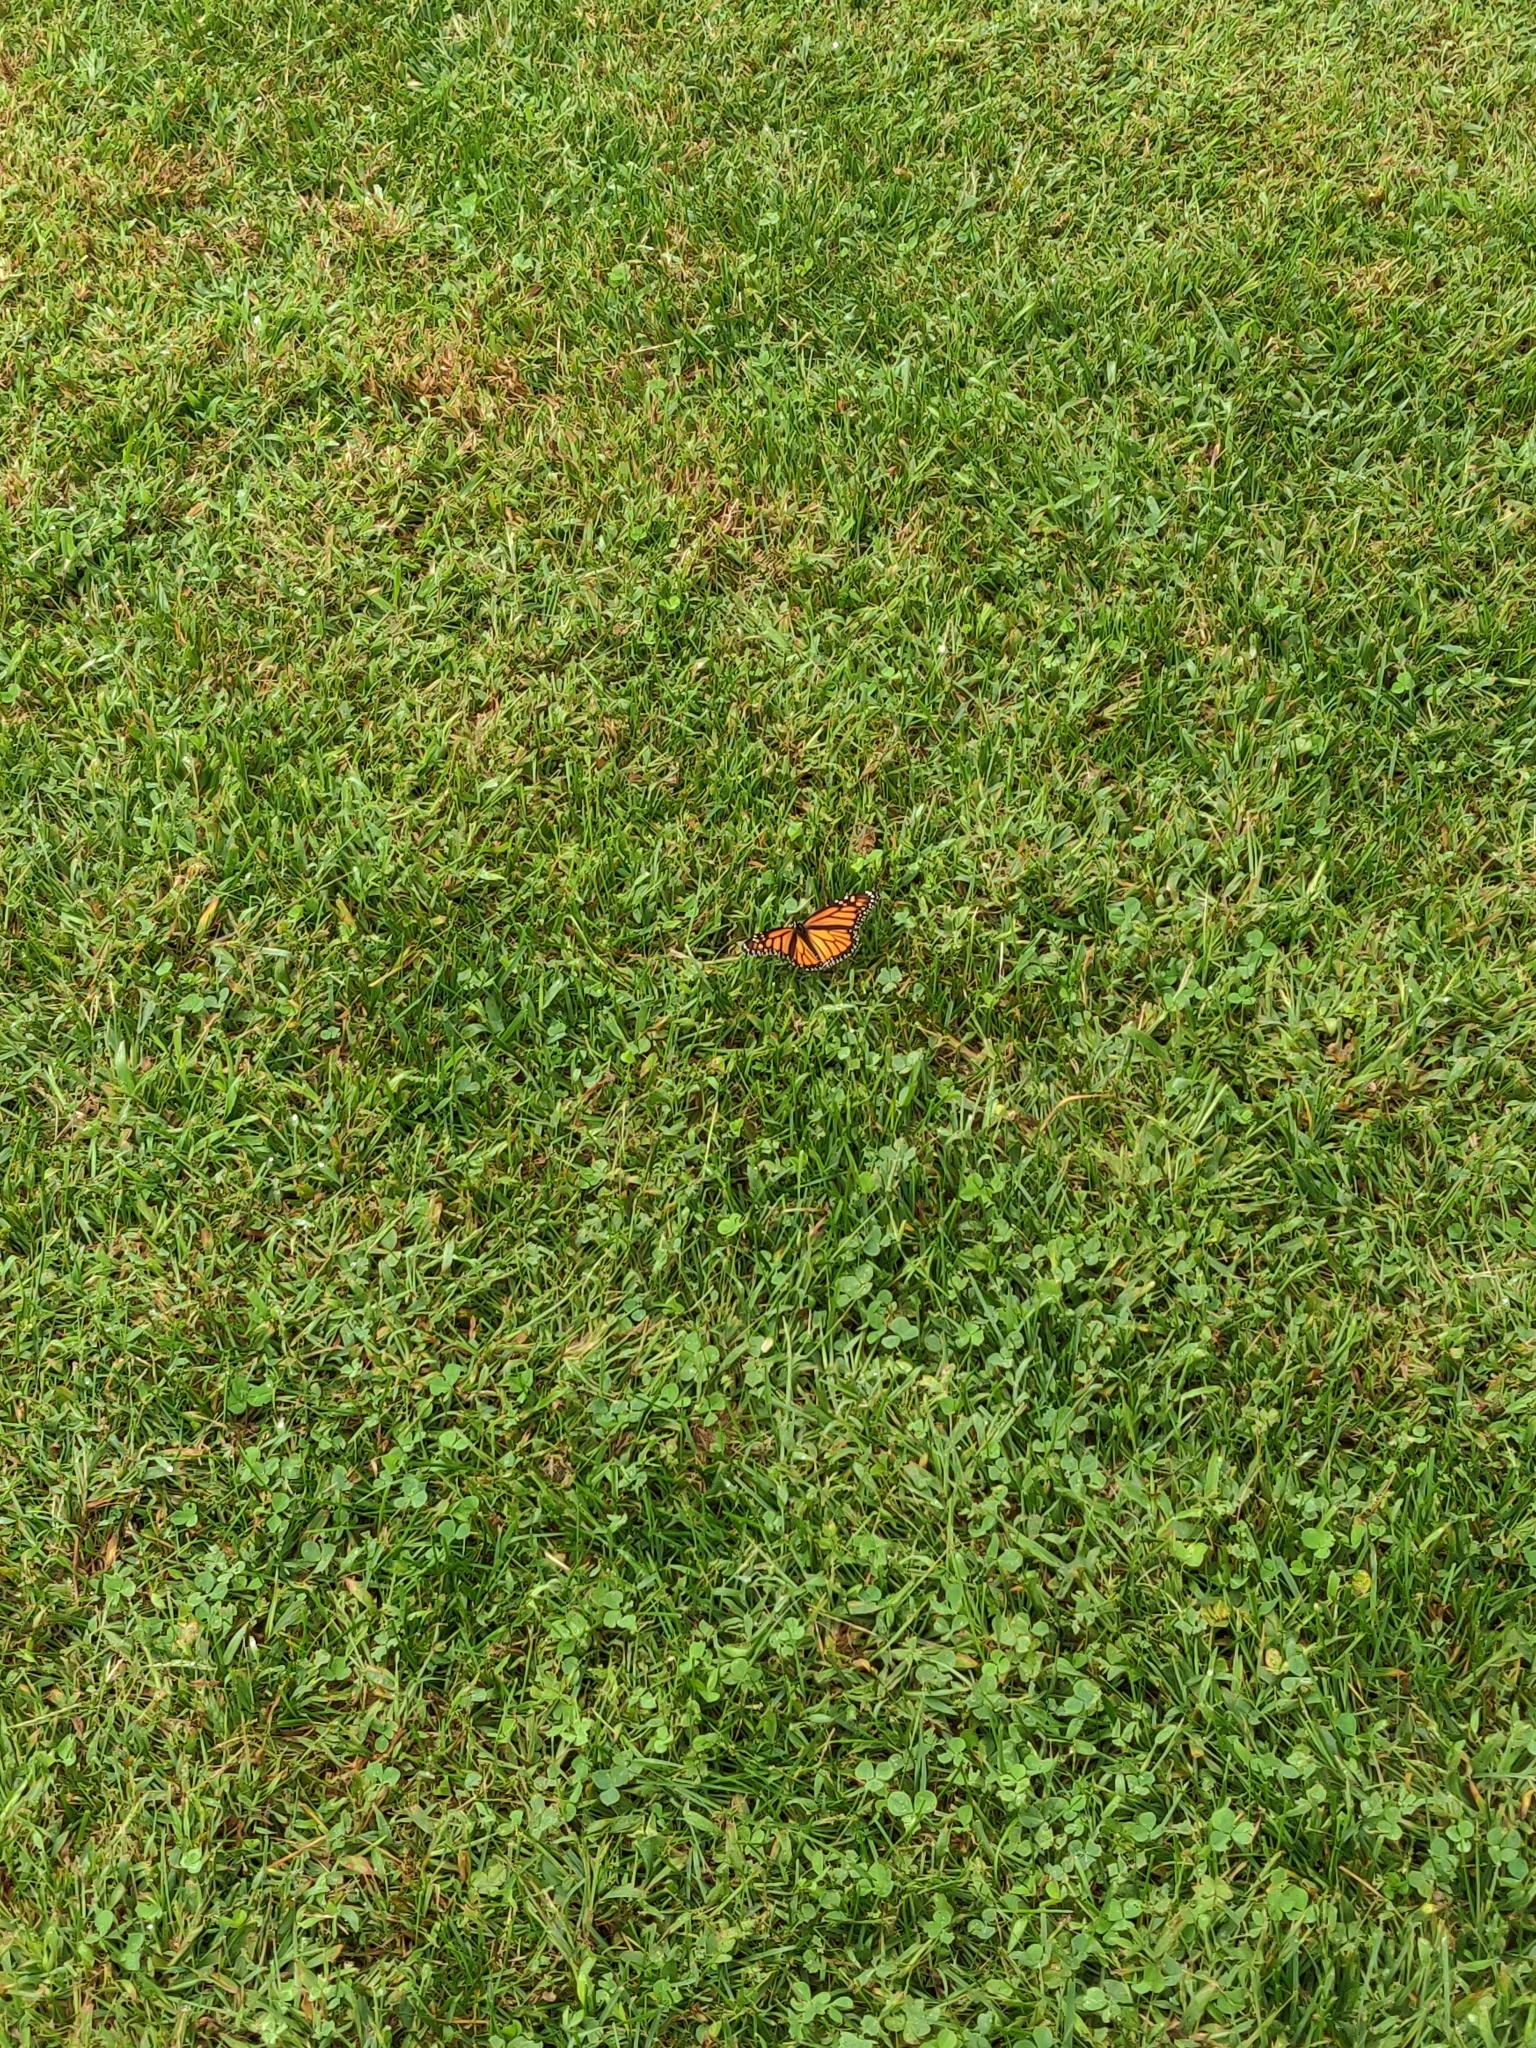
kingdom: Animalia
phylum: Arthropoda
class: Insecta
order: Lepidoptera
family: Nymphalidae
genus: Danaus
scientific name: Danaus plexippus
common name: Monarch
